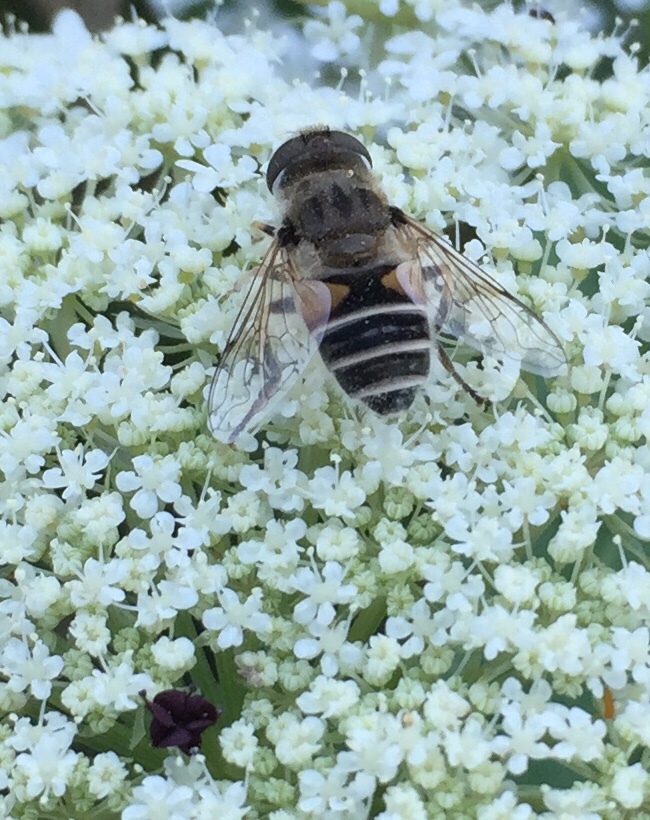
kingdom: Animalia
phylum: Arthropoda
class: Insecta
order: Diptera
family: Syrphidae
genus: Eristalis
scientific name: Eristalis arbustorum
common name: Hover fly
